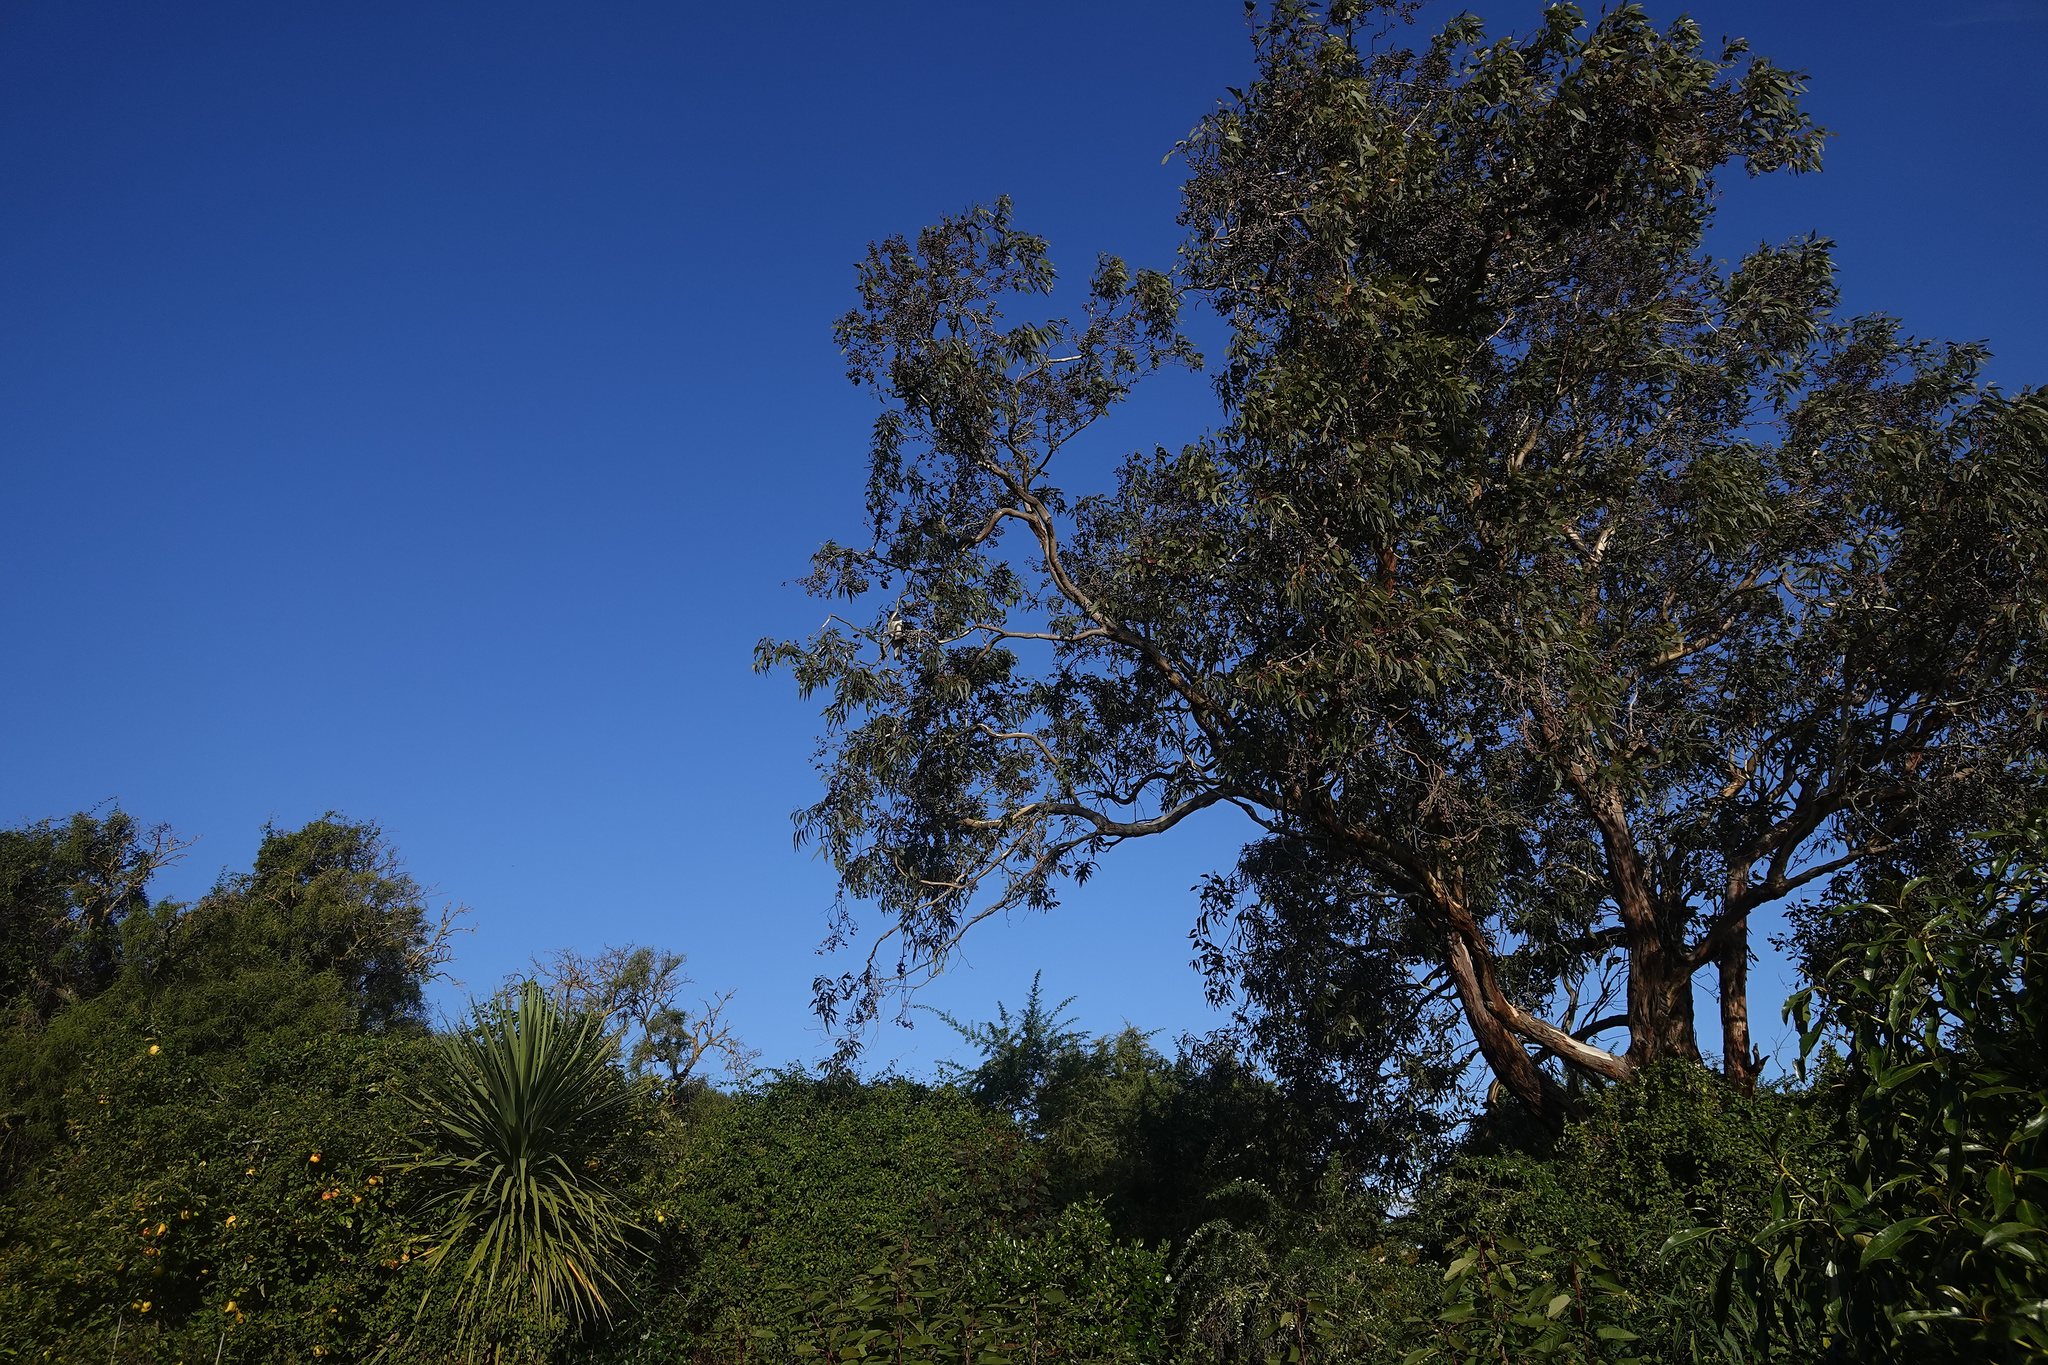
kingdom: Animalia
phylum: Chordata
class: Aves
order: Columbiformes
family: Columbidae
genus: Hemiphaga
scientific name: Hemiphaga novaeseelandiae
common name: New zealand pigeon
